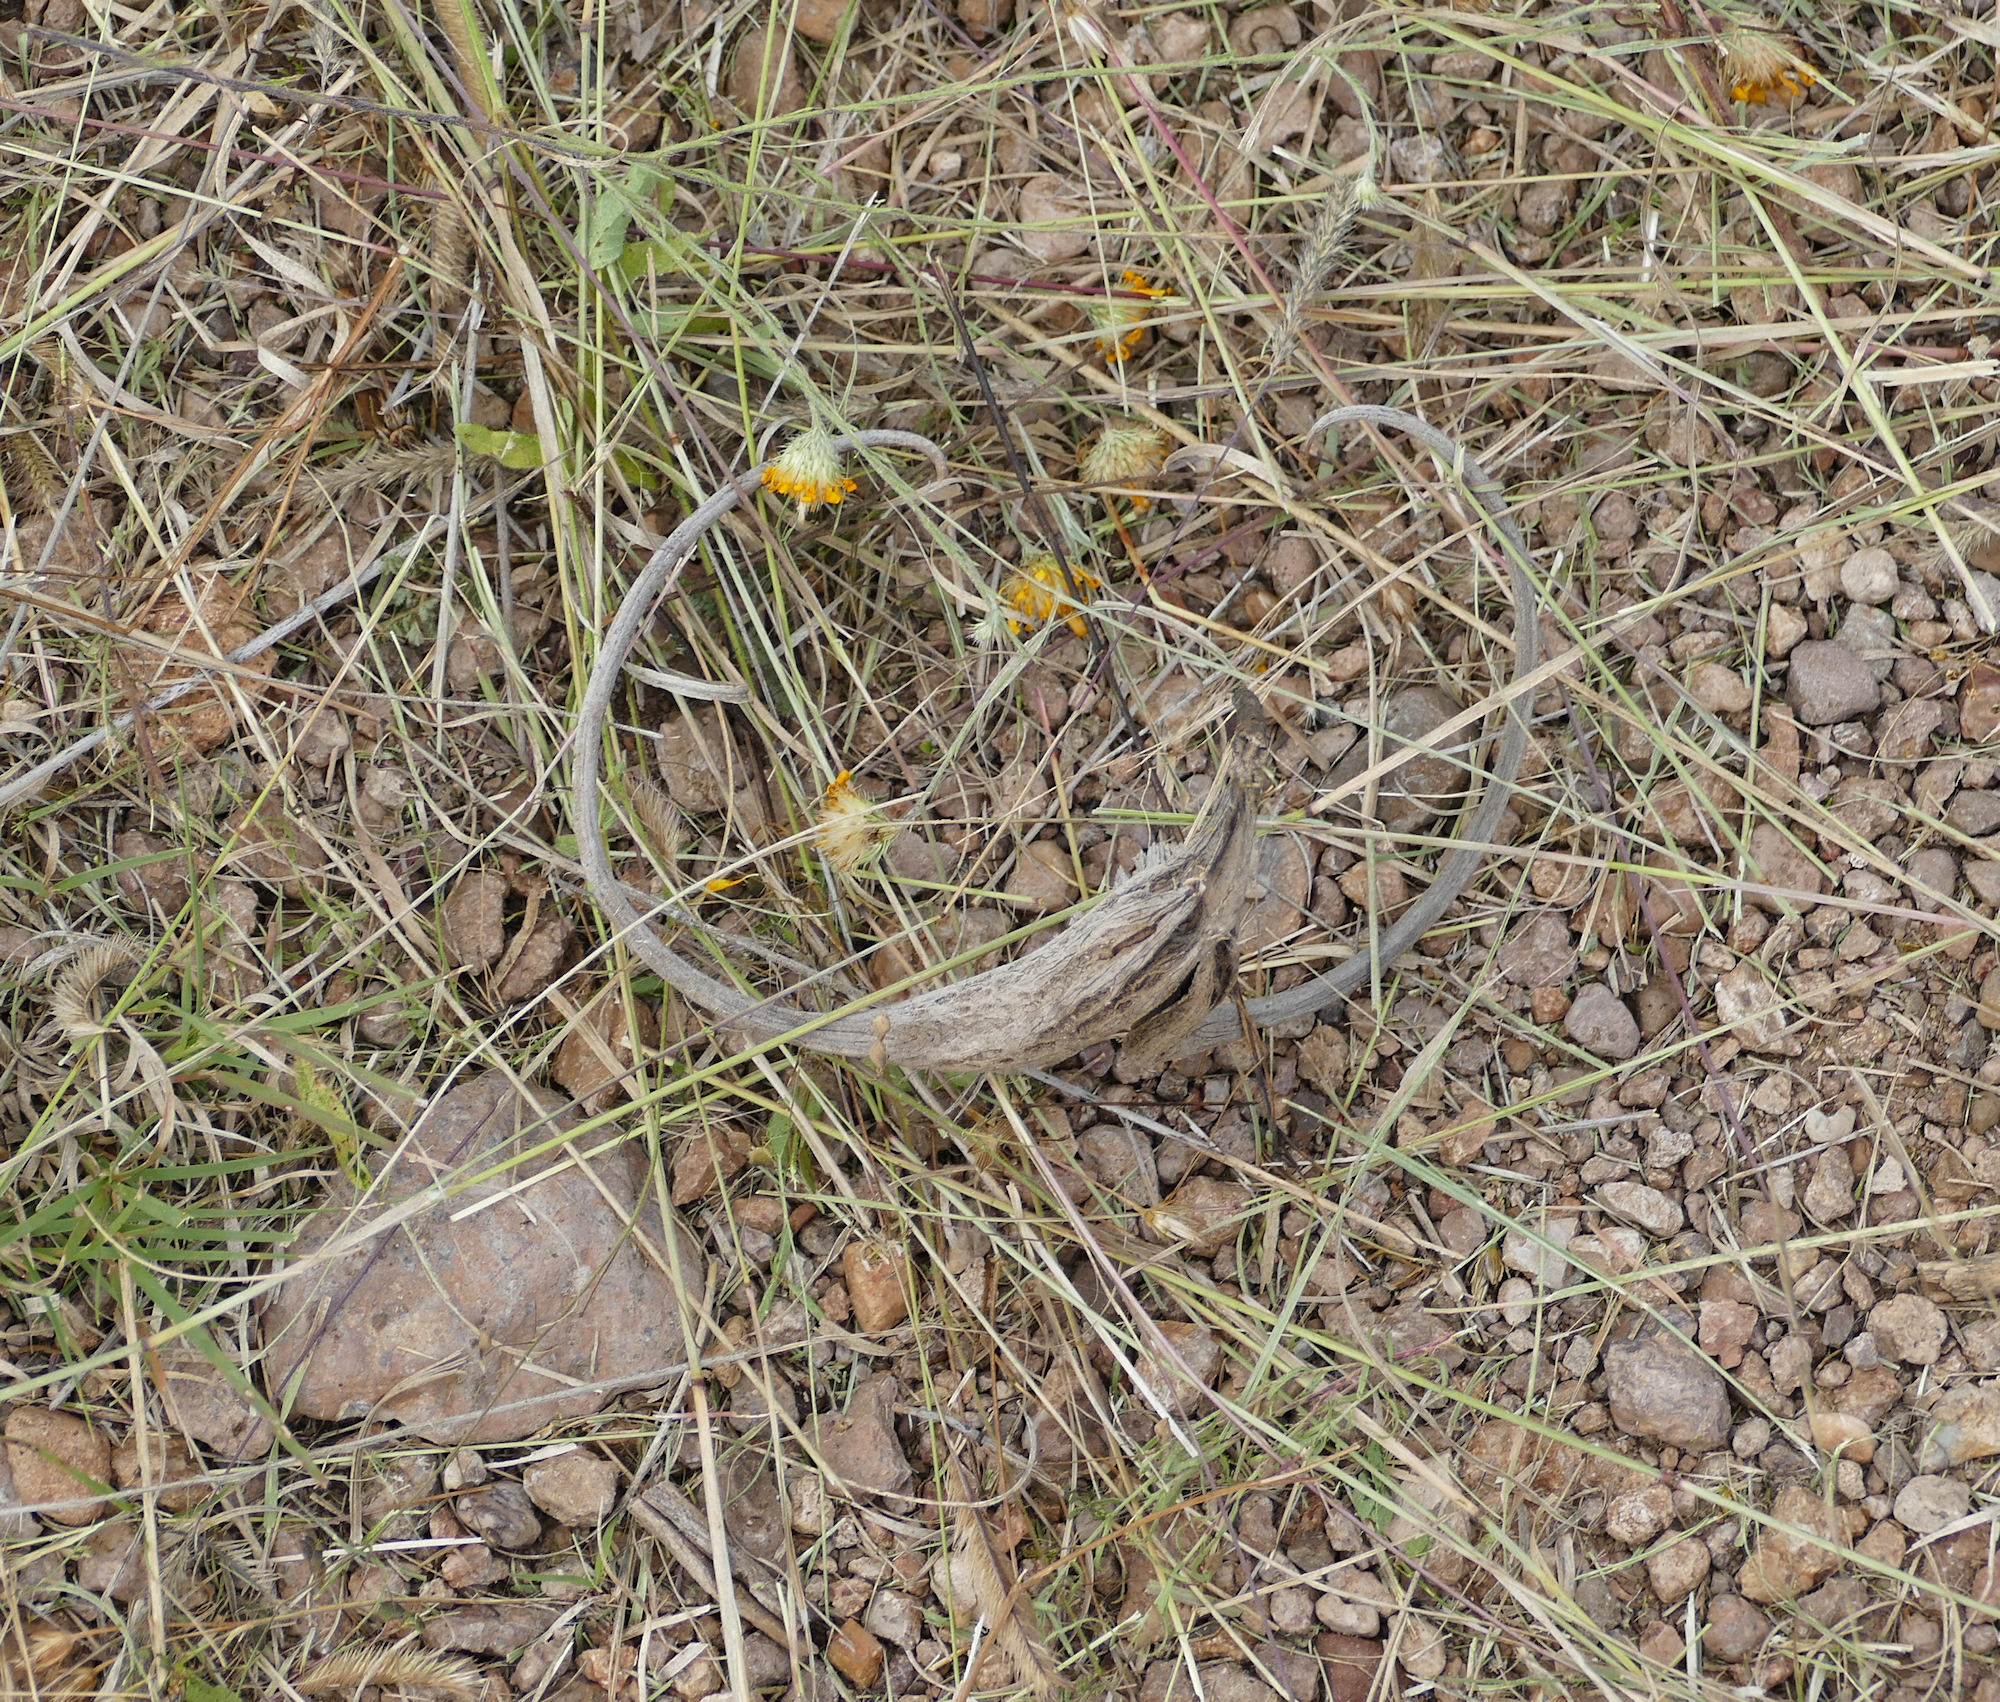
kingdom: Plantae
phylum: Tracheophyta
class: Magnoliopsida
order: Lamiales
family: Martyniaceae
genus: Proboscidea
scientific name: Proboscidea parviflora
